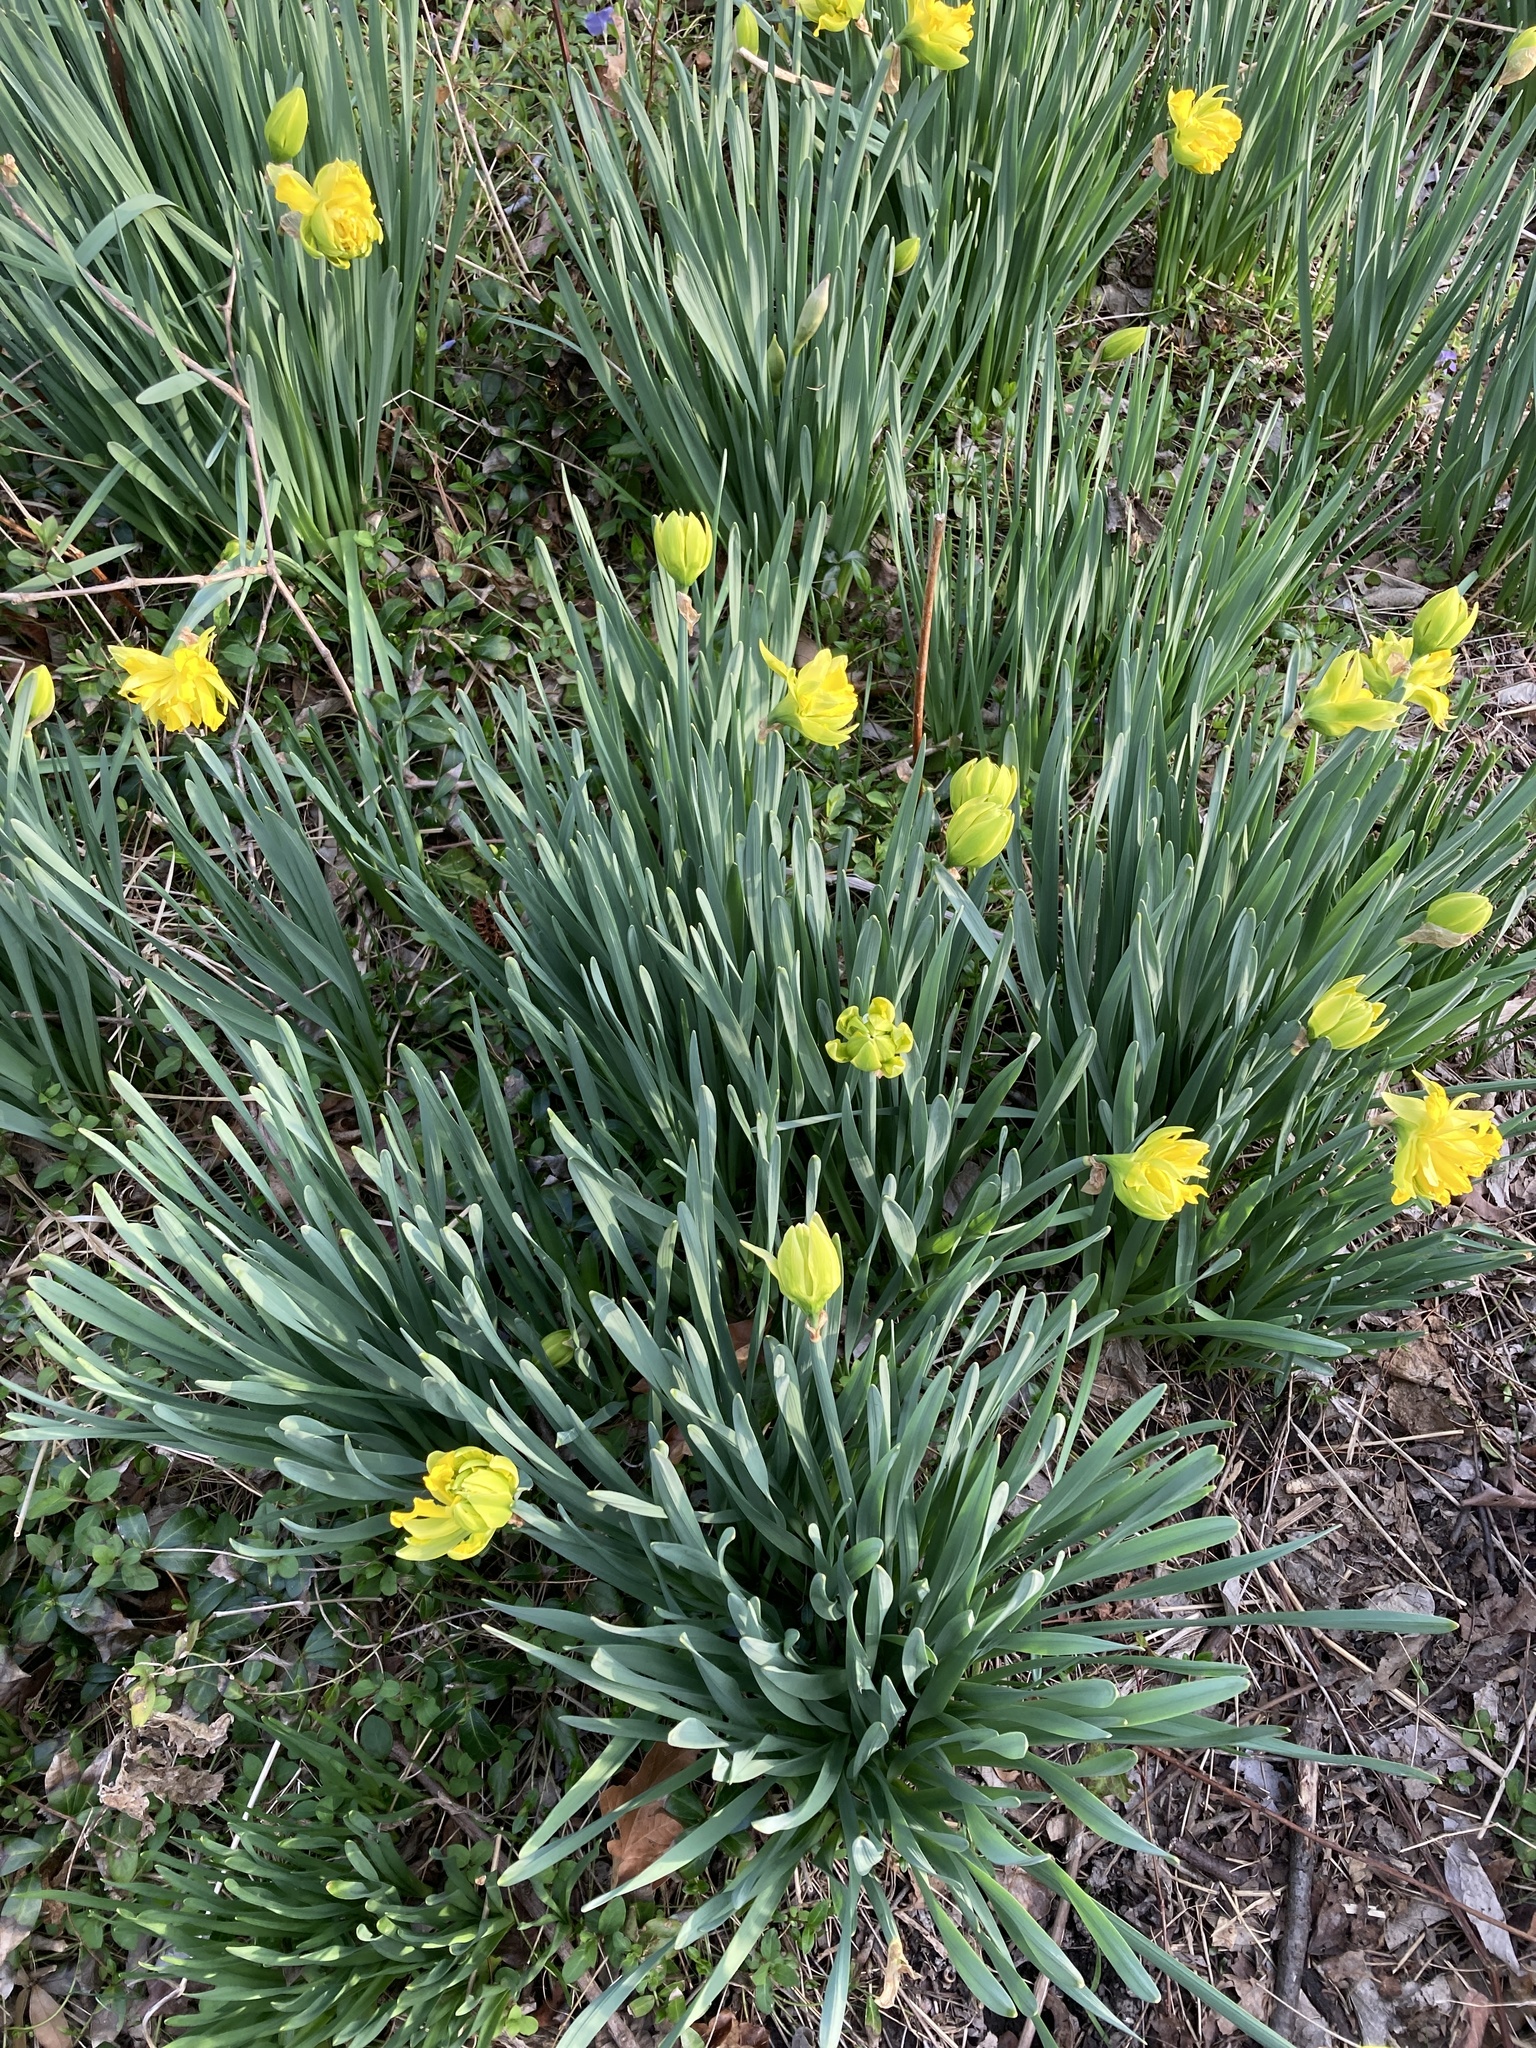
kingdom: Plantae
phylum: Tracheophyta
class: Liliopsida
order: Asparagales
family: Amaryllidaceae
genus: Narcissus
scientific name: Narcissus pseudonarcissus
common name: Daffodil
